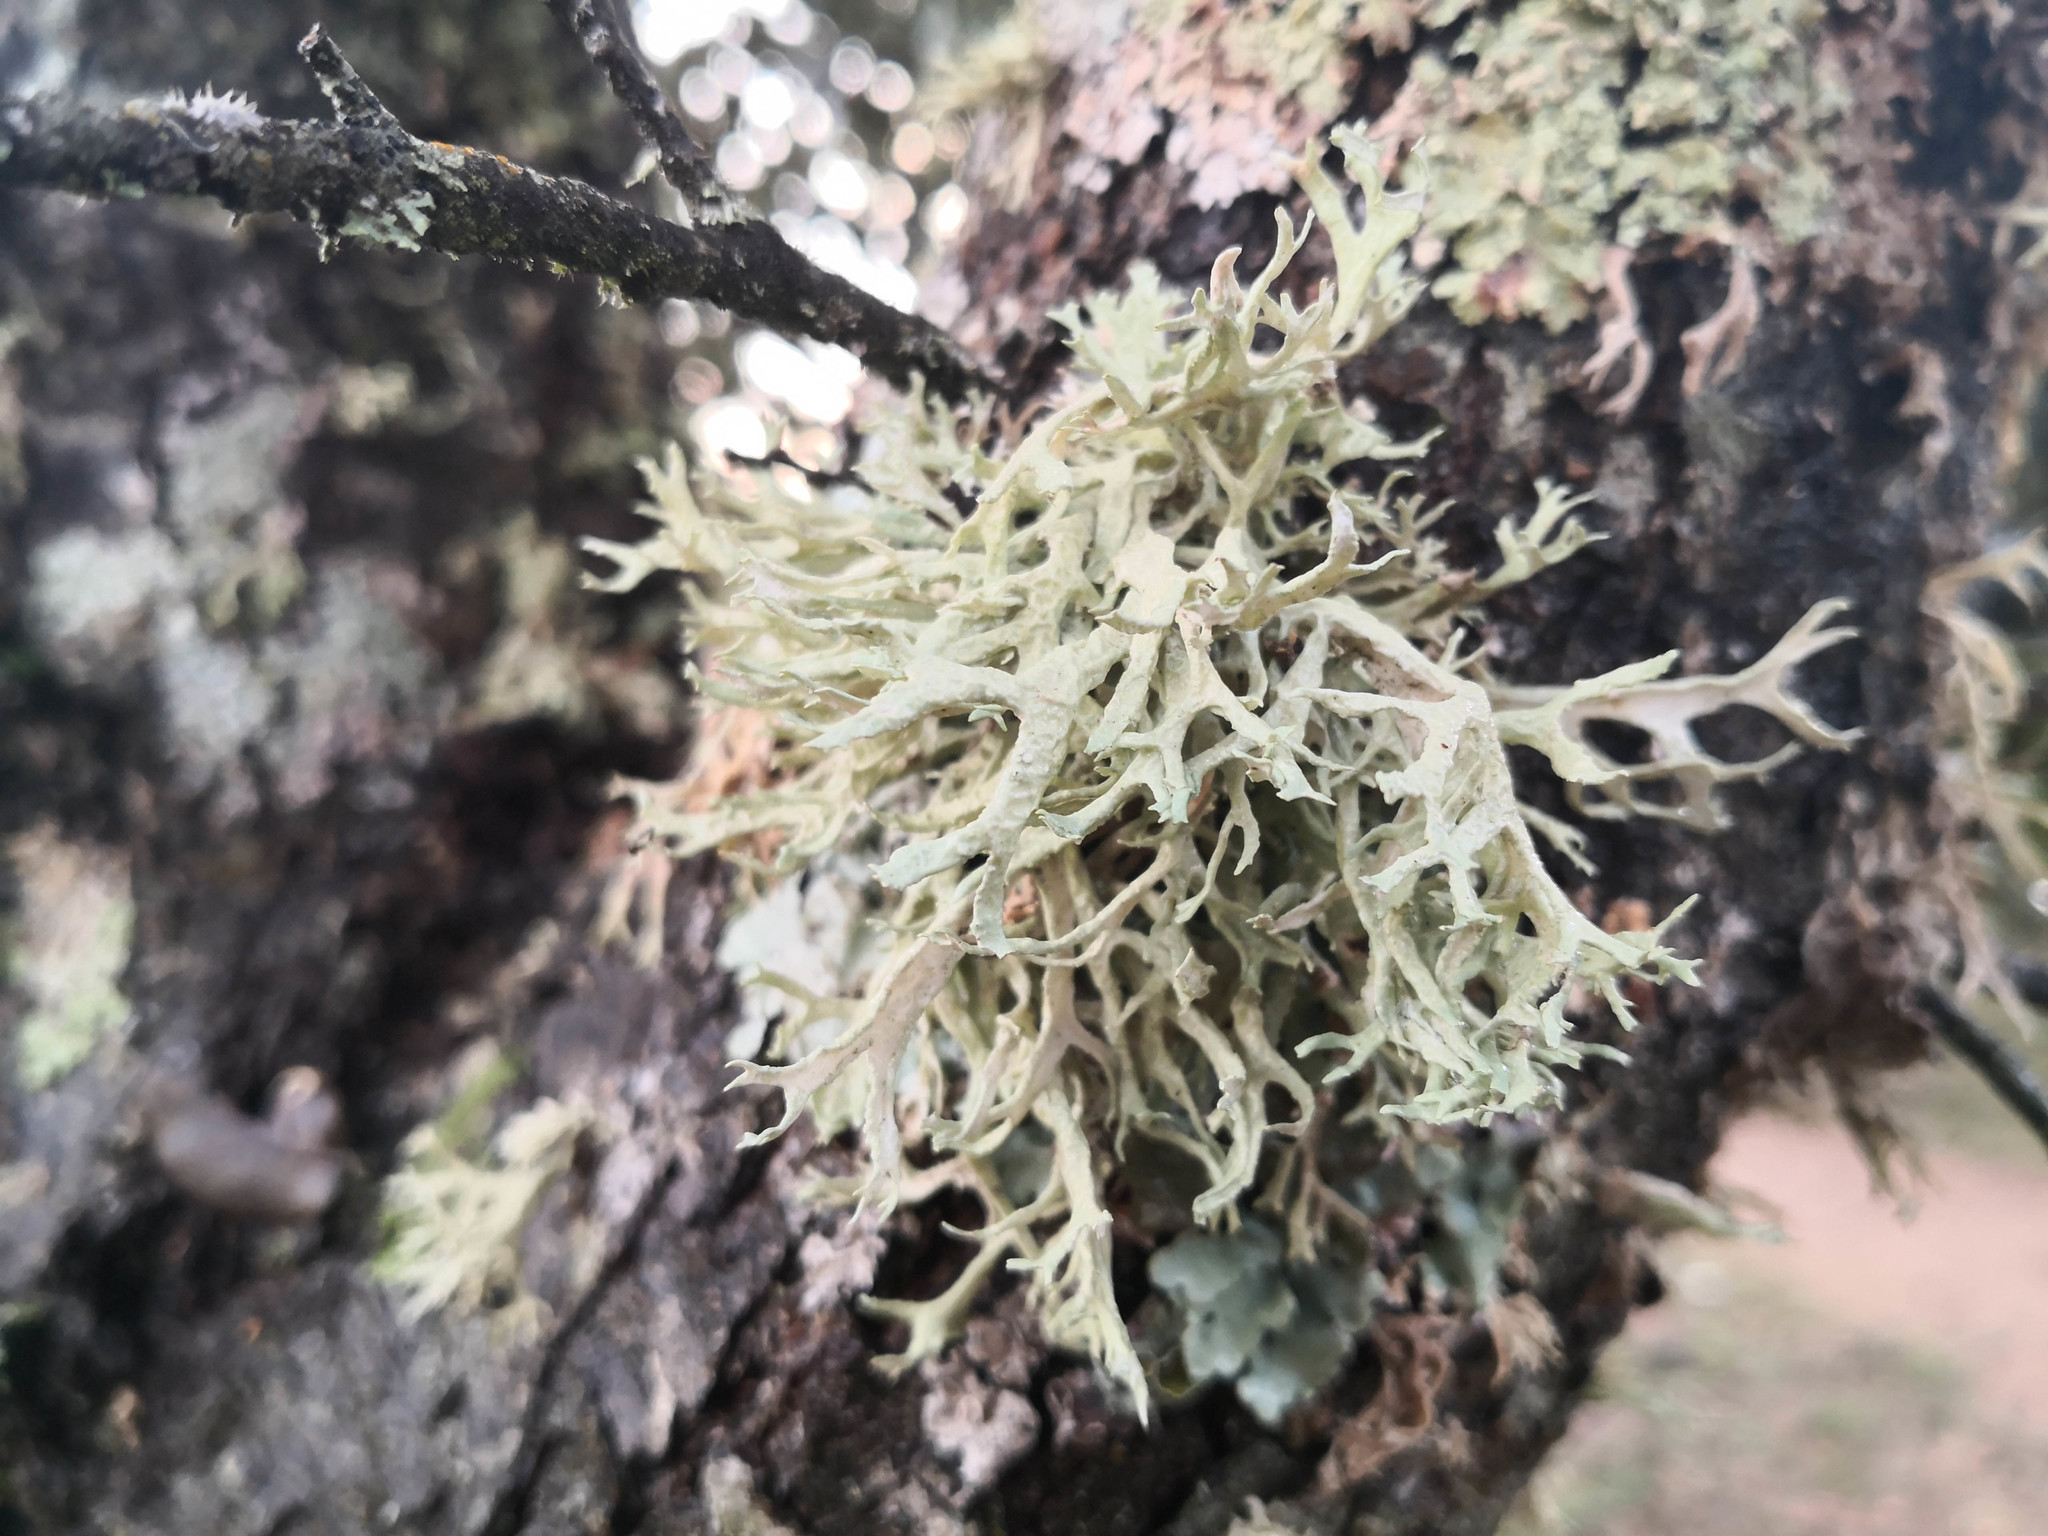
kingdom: Fungi
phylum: Ascomycota
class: Lecanoromycetes
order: Lecanorales
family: Parmeliaceae
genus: Evernia
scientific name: Evernia prunastri
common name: Oak moss
